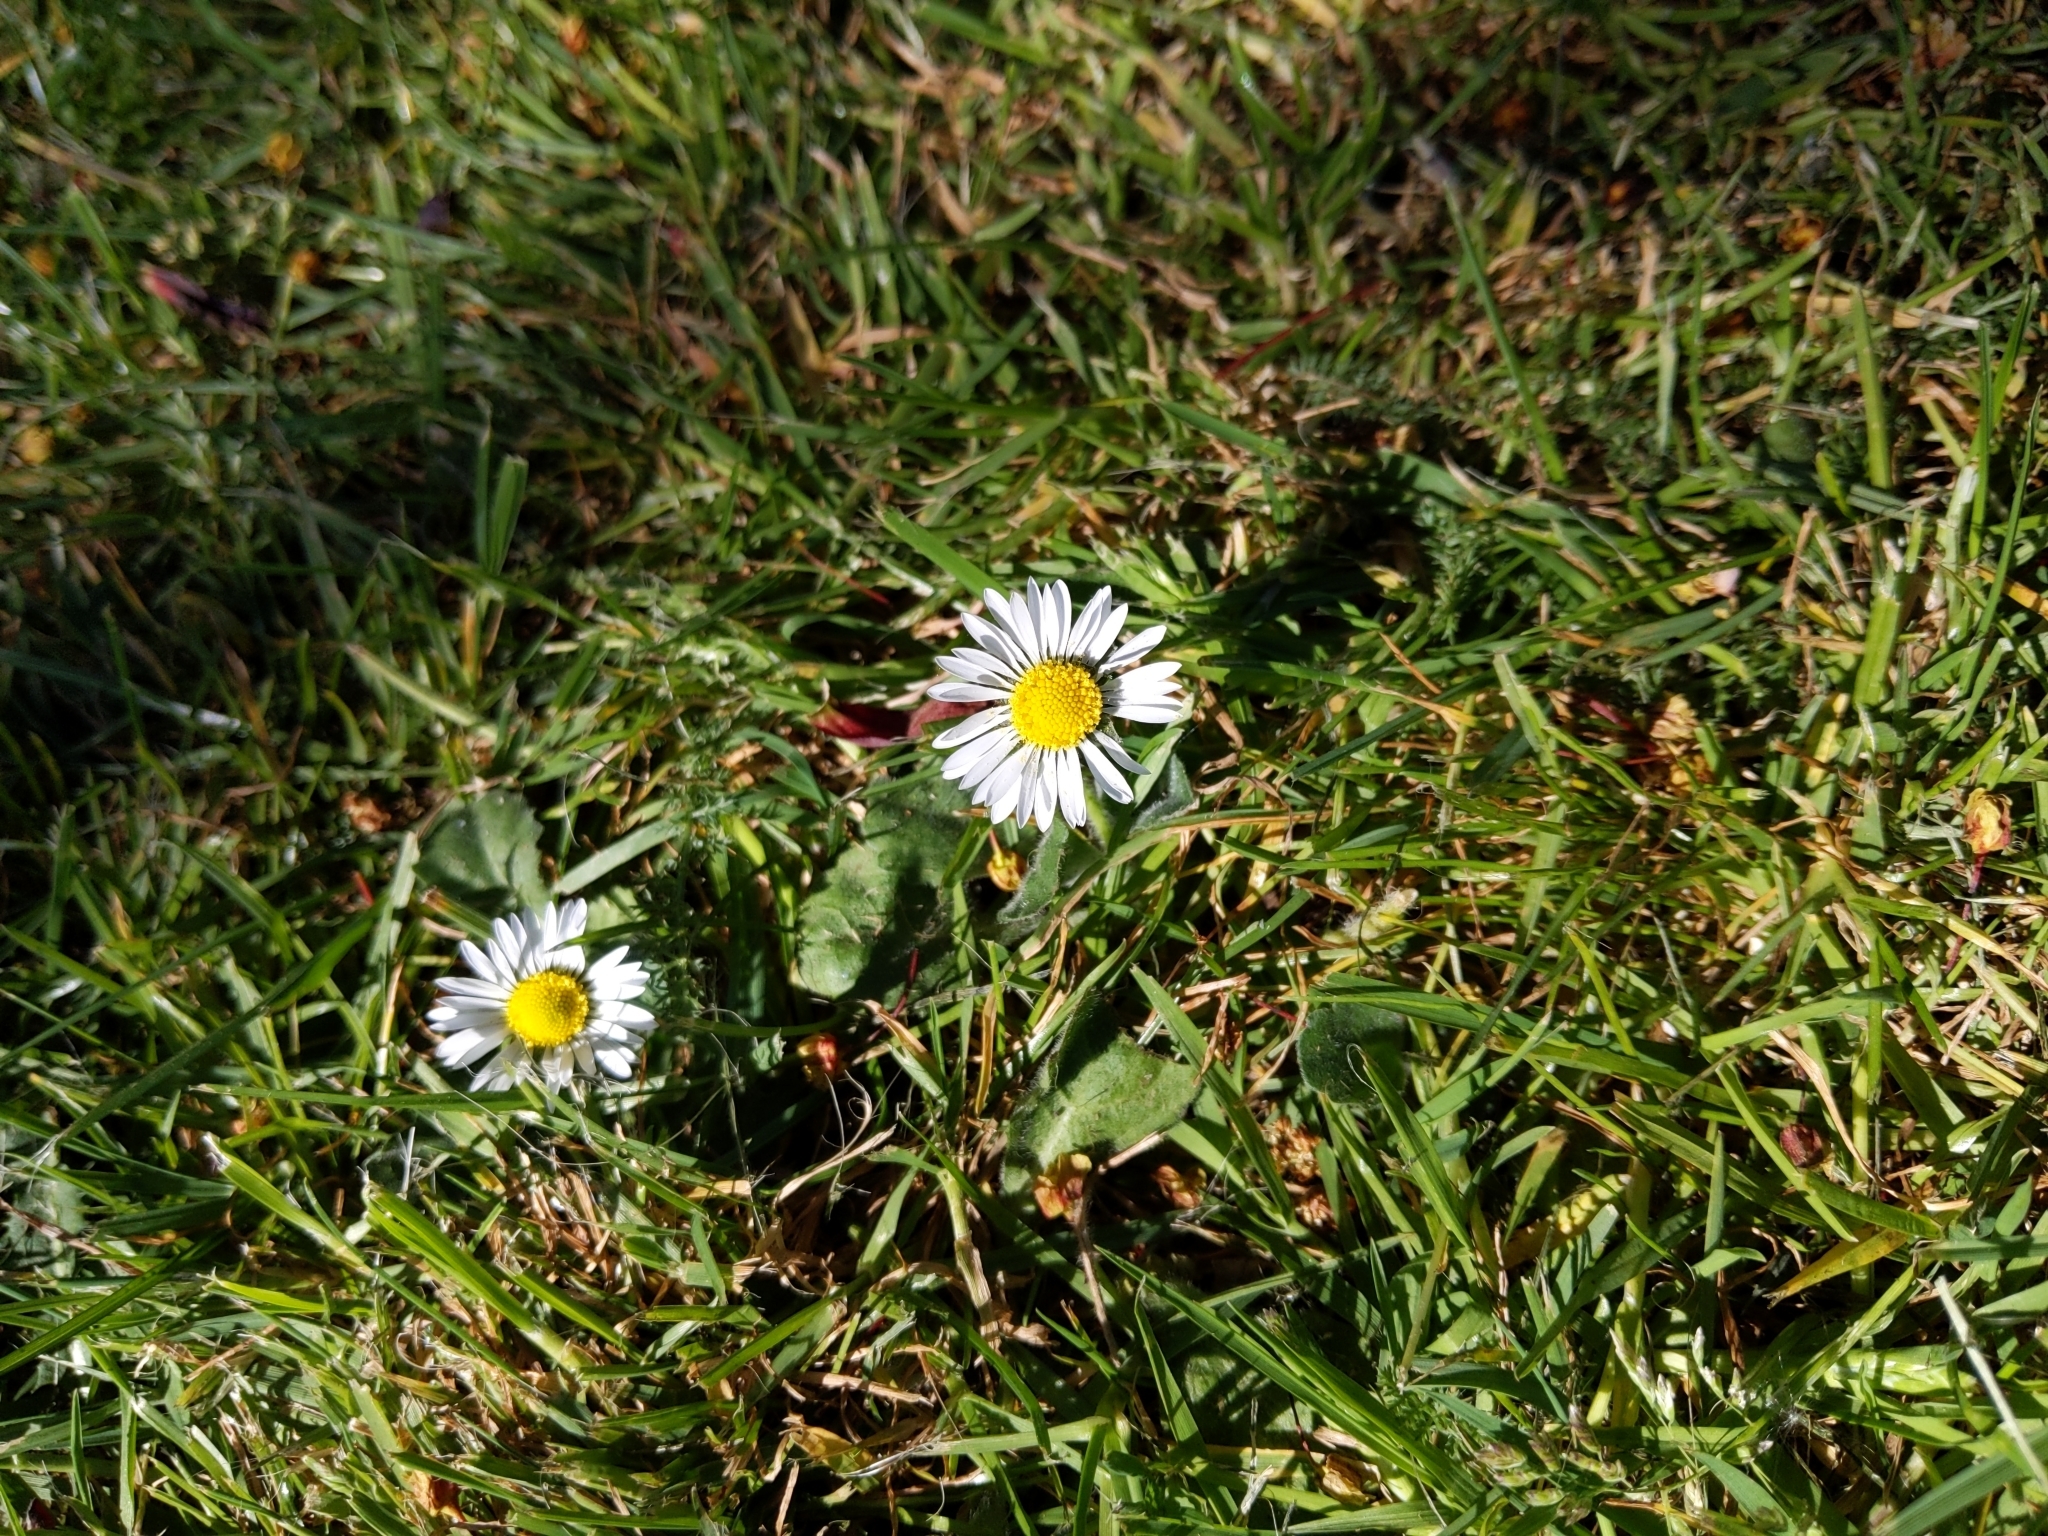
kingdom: Plantae
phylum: Tracheophyta
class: Magnoliopsida
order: Asterales
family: Asteraceae
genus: Bellis
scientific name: Bellis perennis
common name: Lawndaisy
